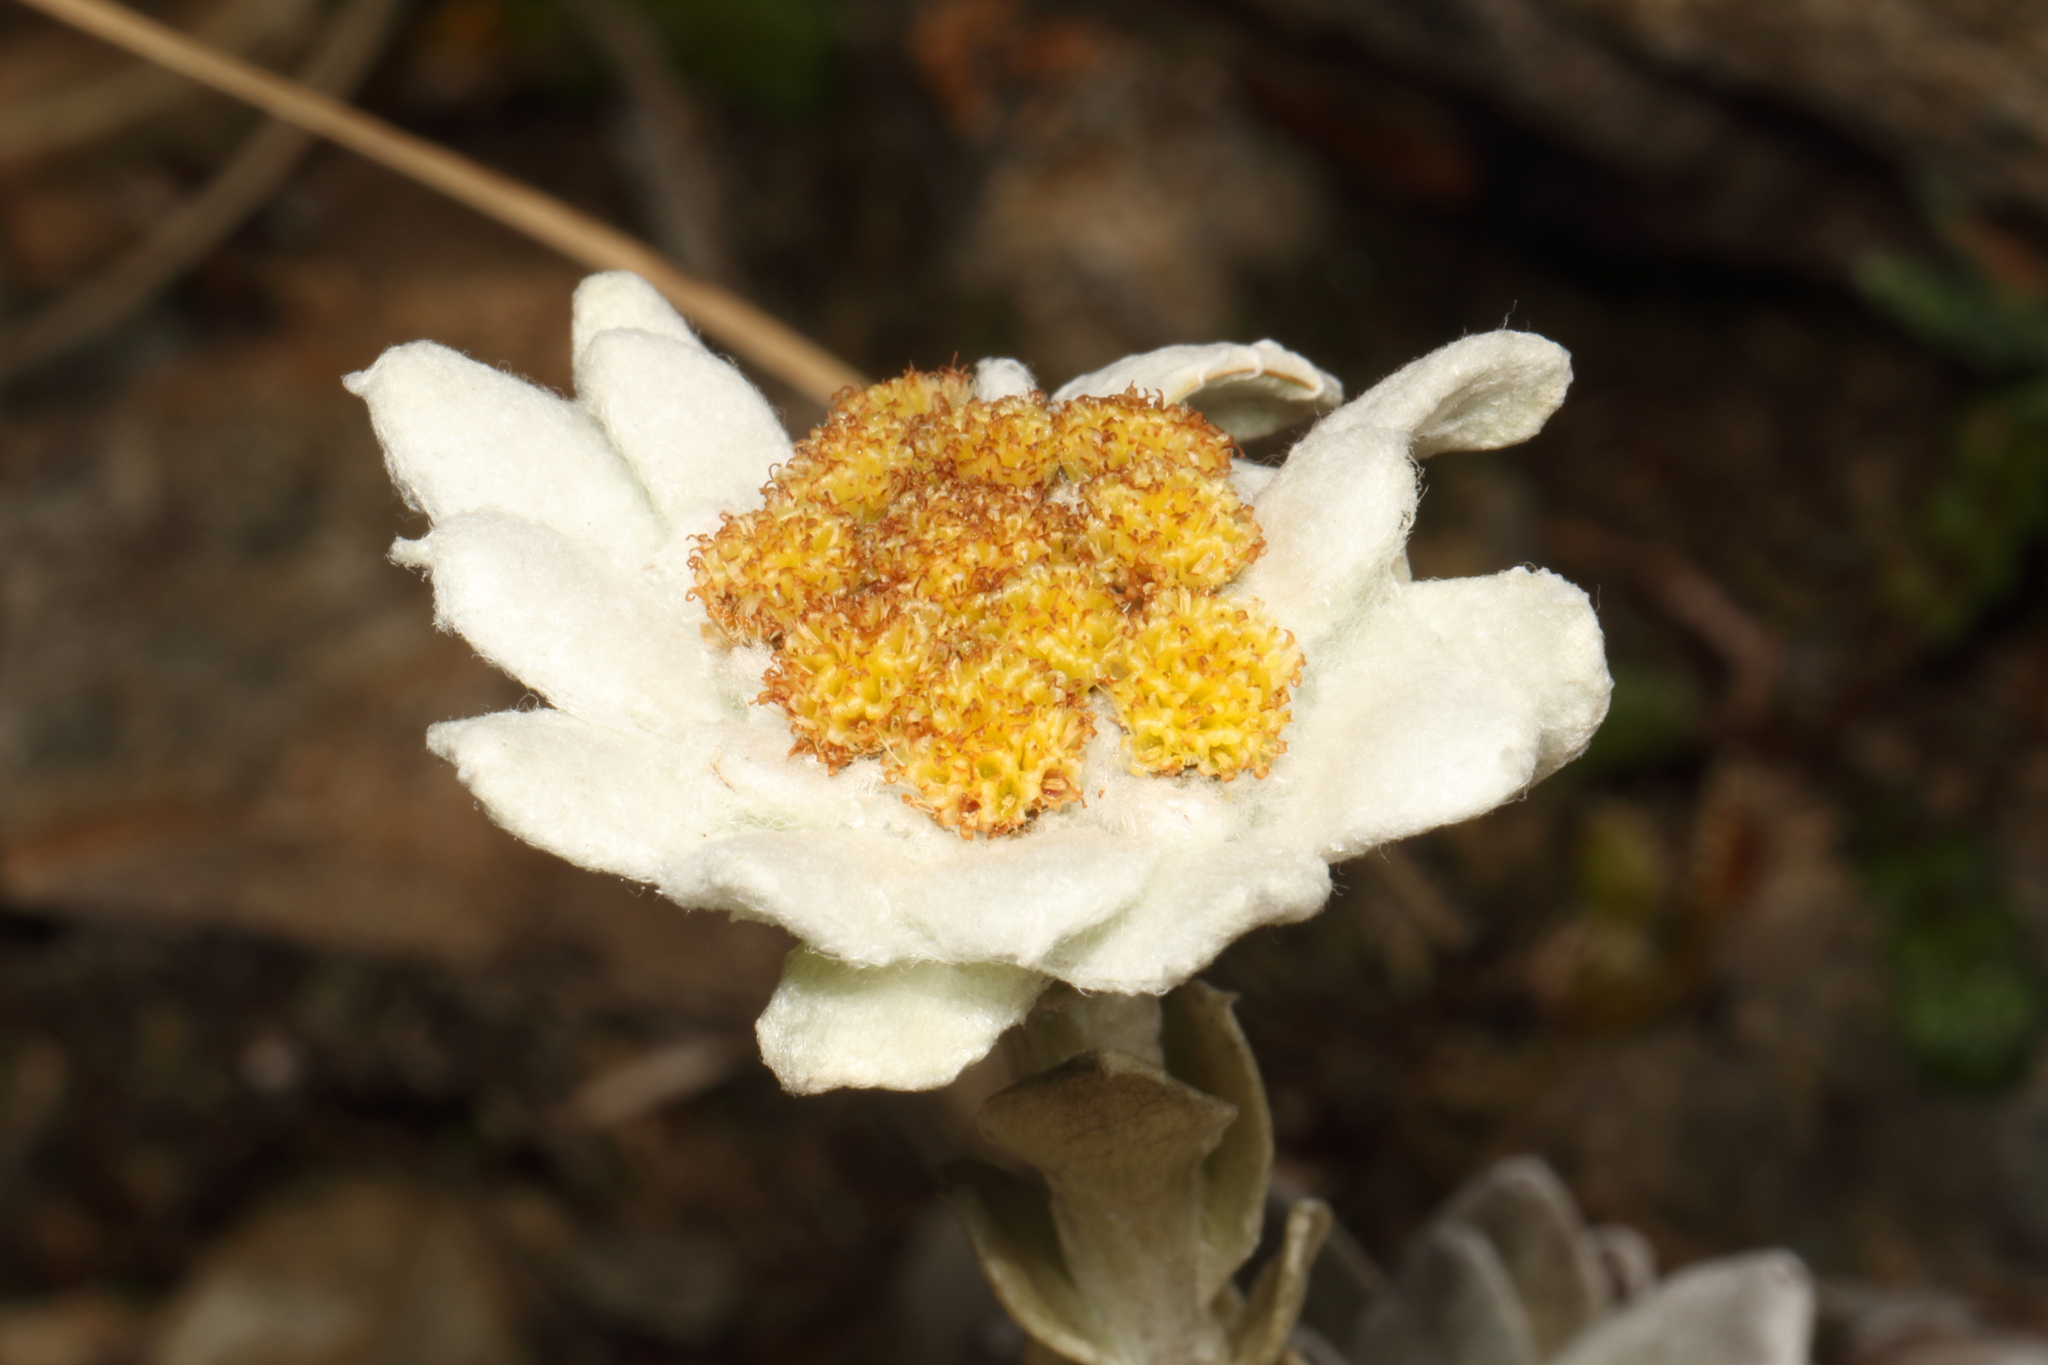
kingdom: Plantae
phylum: Tracheophyta
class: Magnoliopsida
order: Asterales
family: Asteraceae
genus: Leucogenes
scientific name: Leucogenes leontopodium
